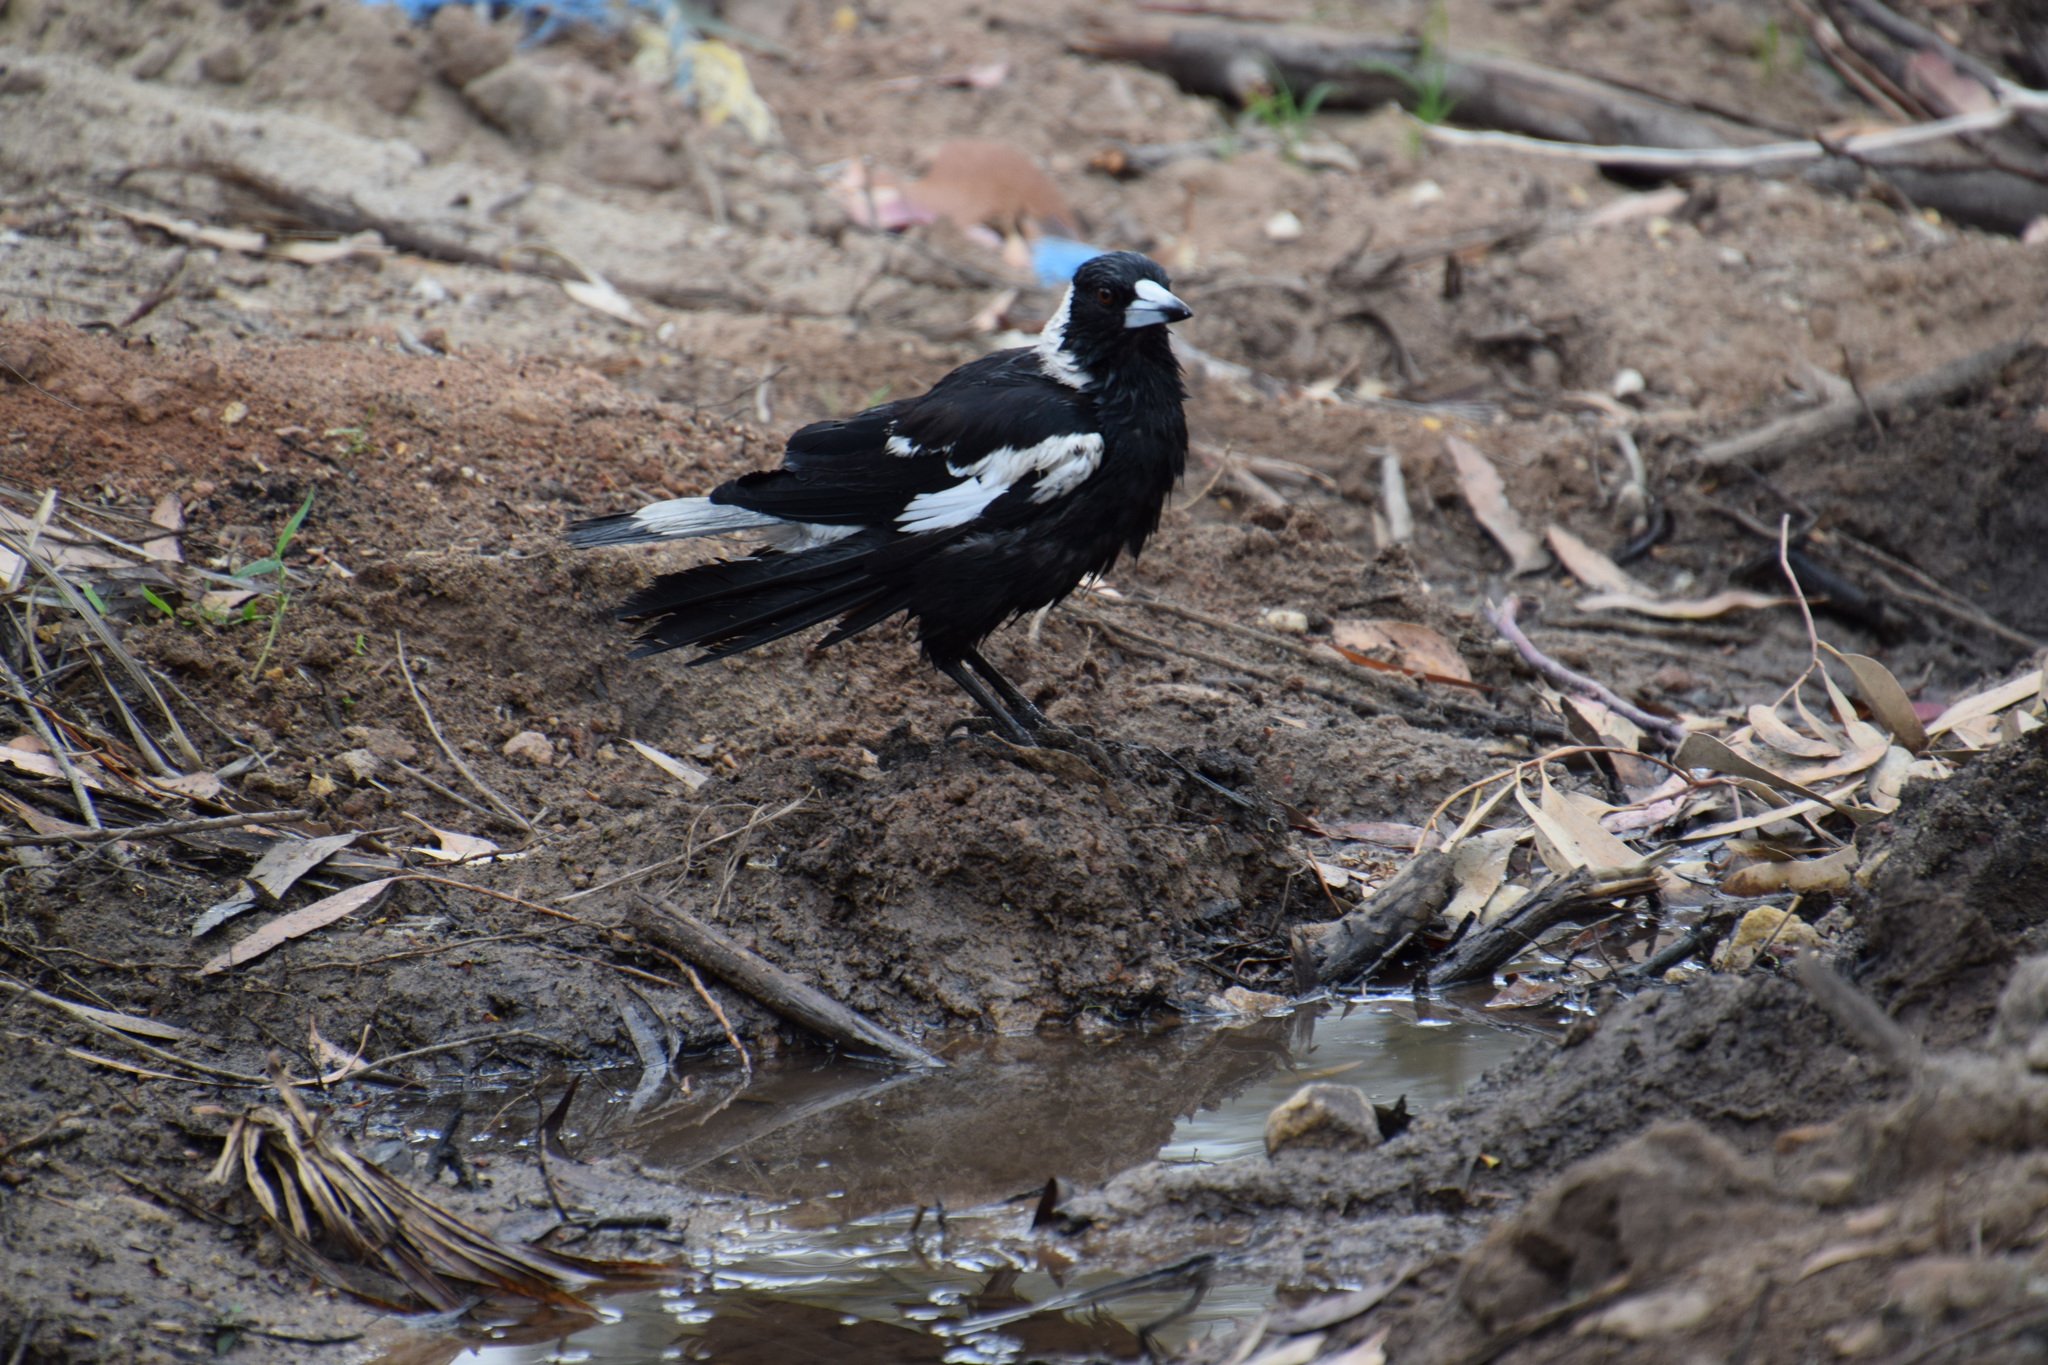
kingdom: Animalia
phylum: Chordata
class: Aves
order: Passeriformes
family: Cracticidae
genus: Gymnorhina
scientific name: Gymnorhina tibicen
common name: Australian magpie
